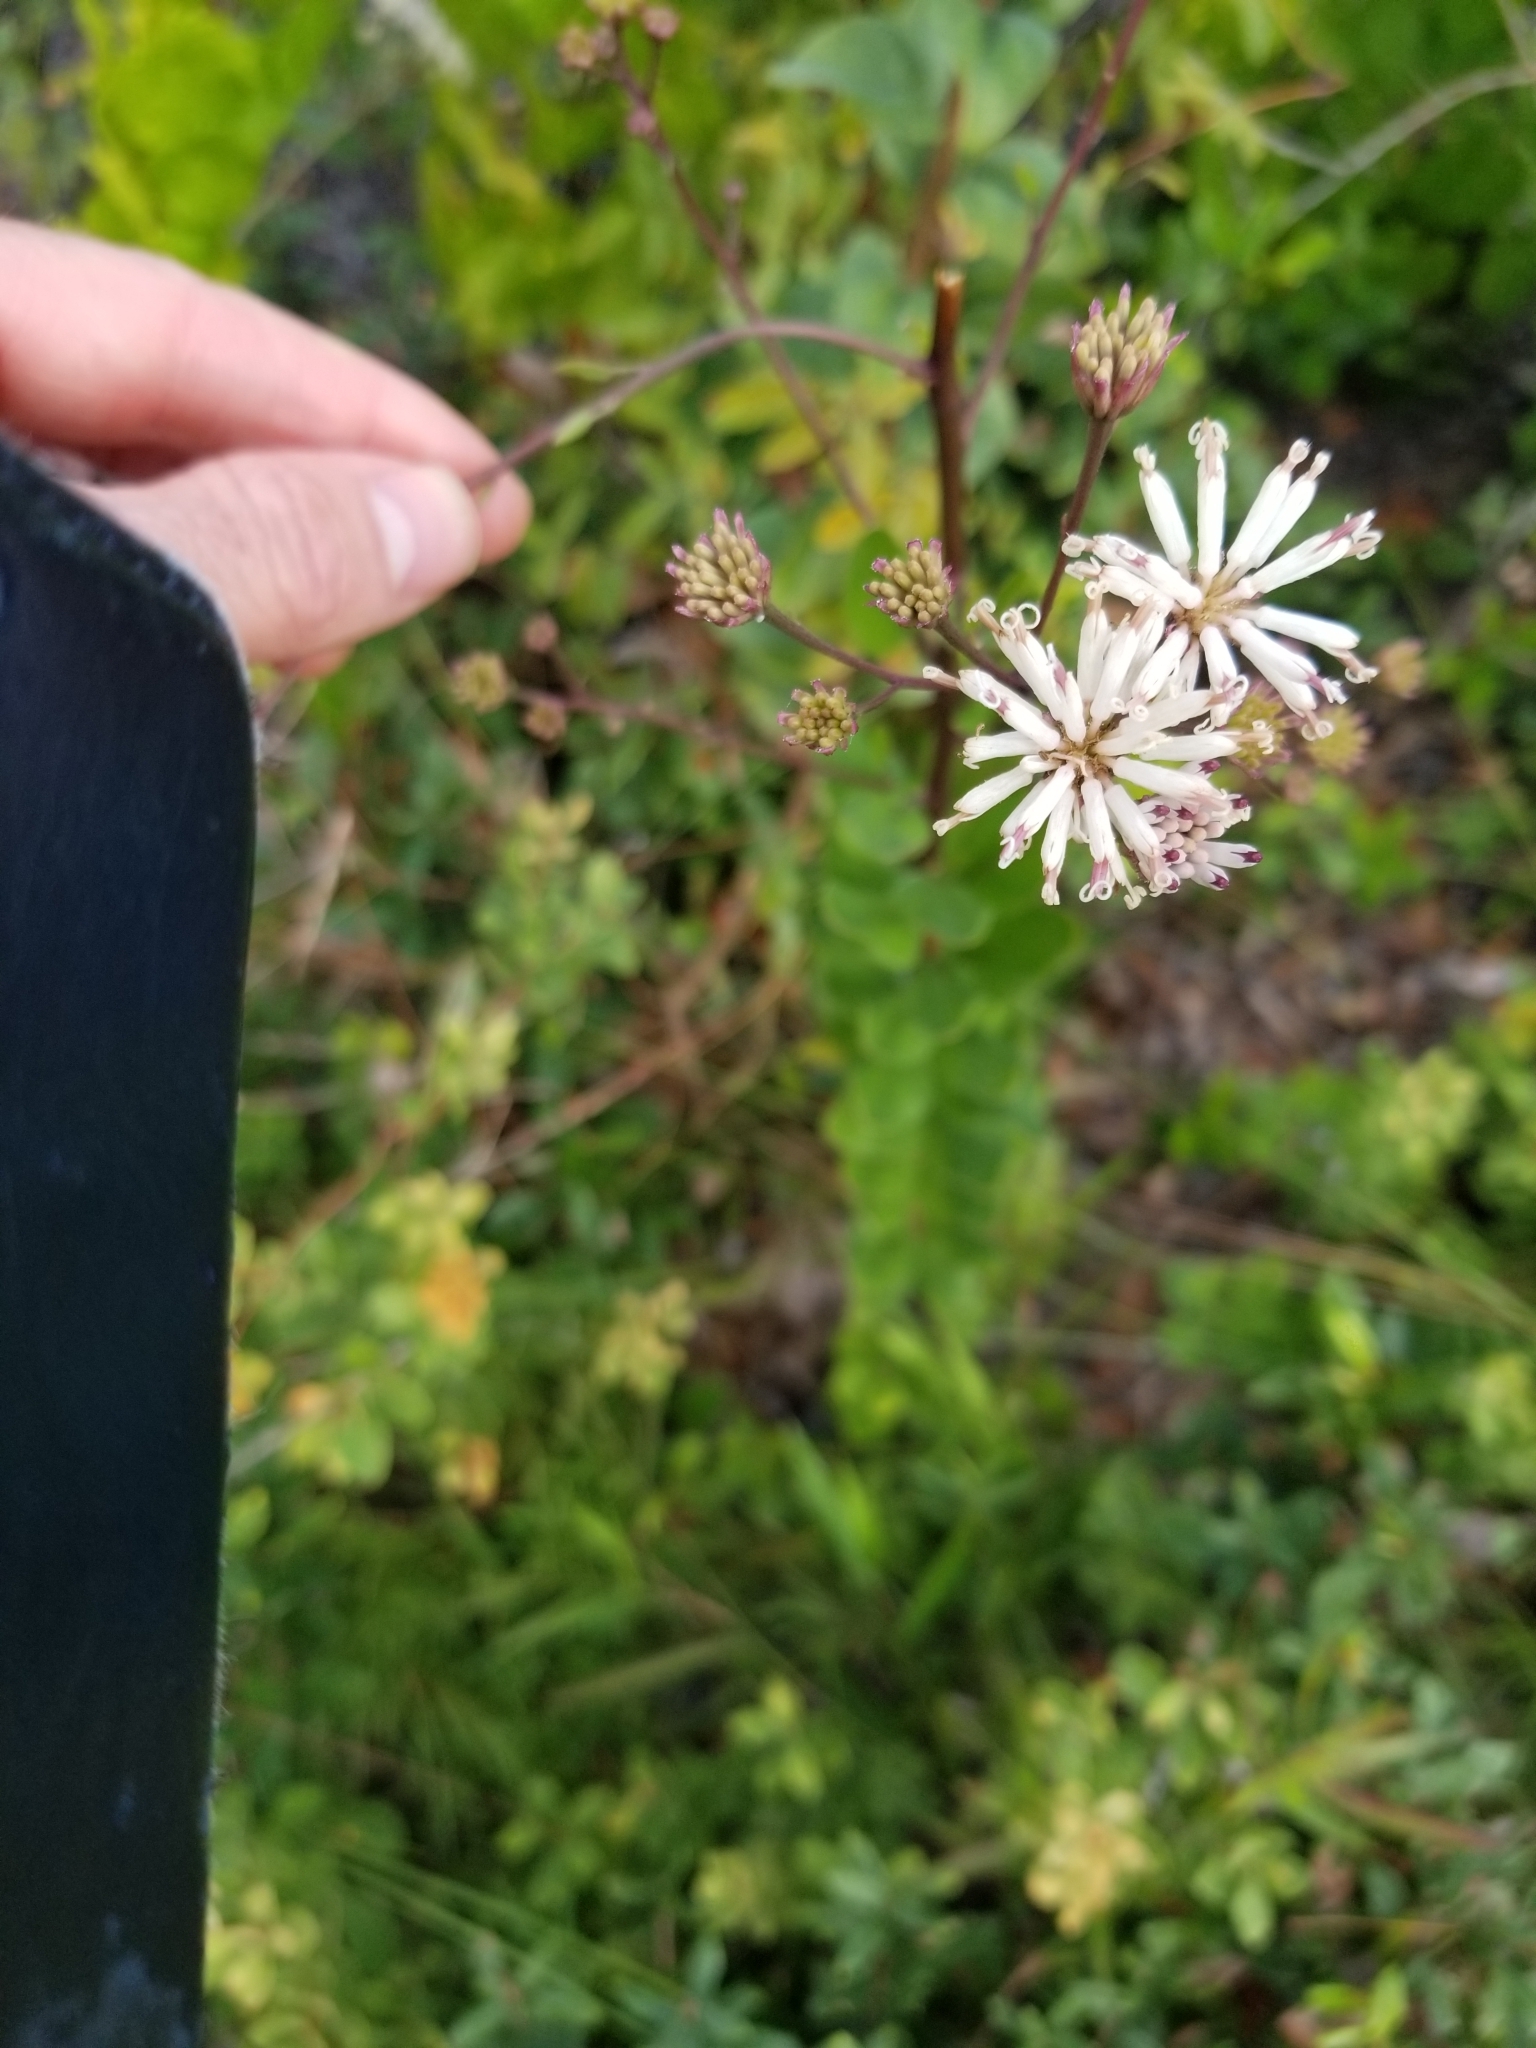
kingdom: Plantae
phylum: Tracheophyta
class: Magnoliopsida
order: Asterales
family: Asteraceae
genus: Palafoxia
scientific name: Palafoxia feayi
